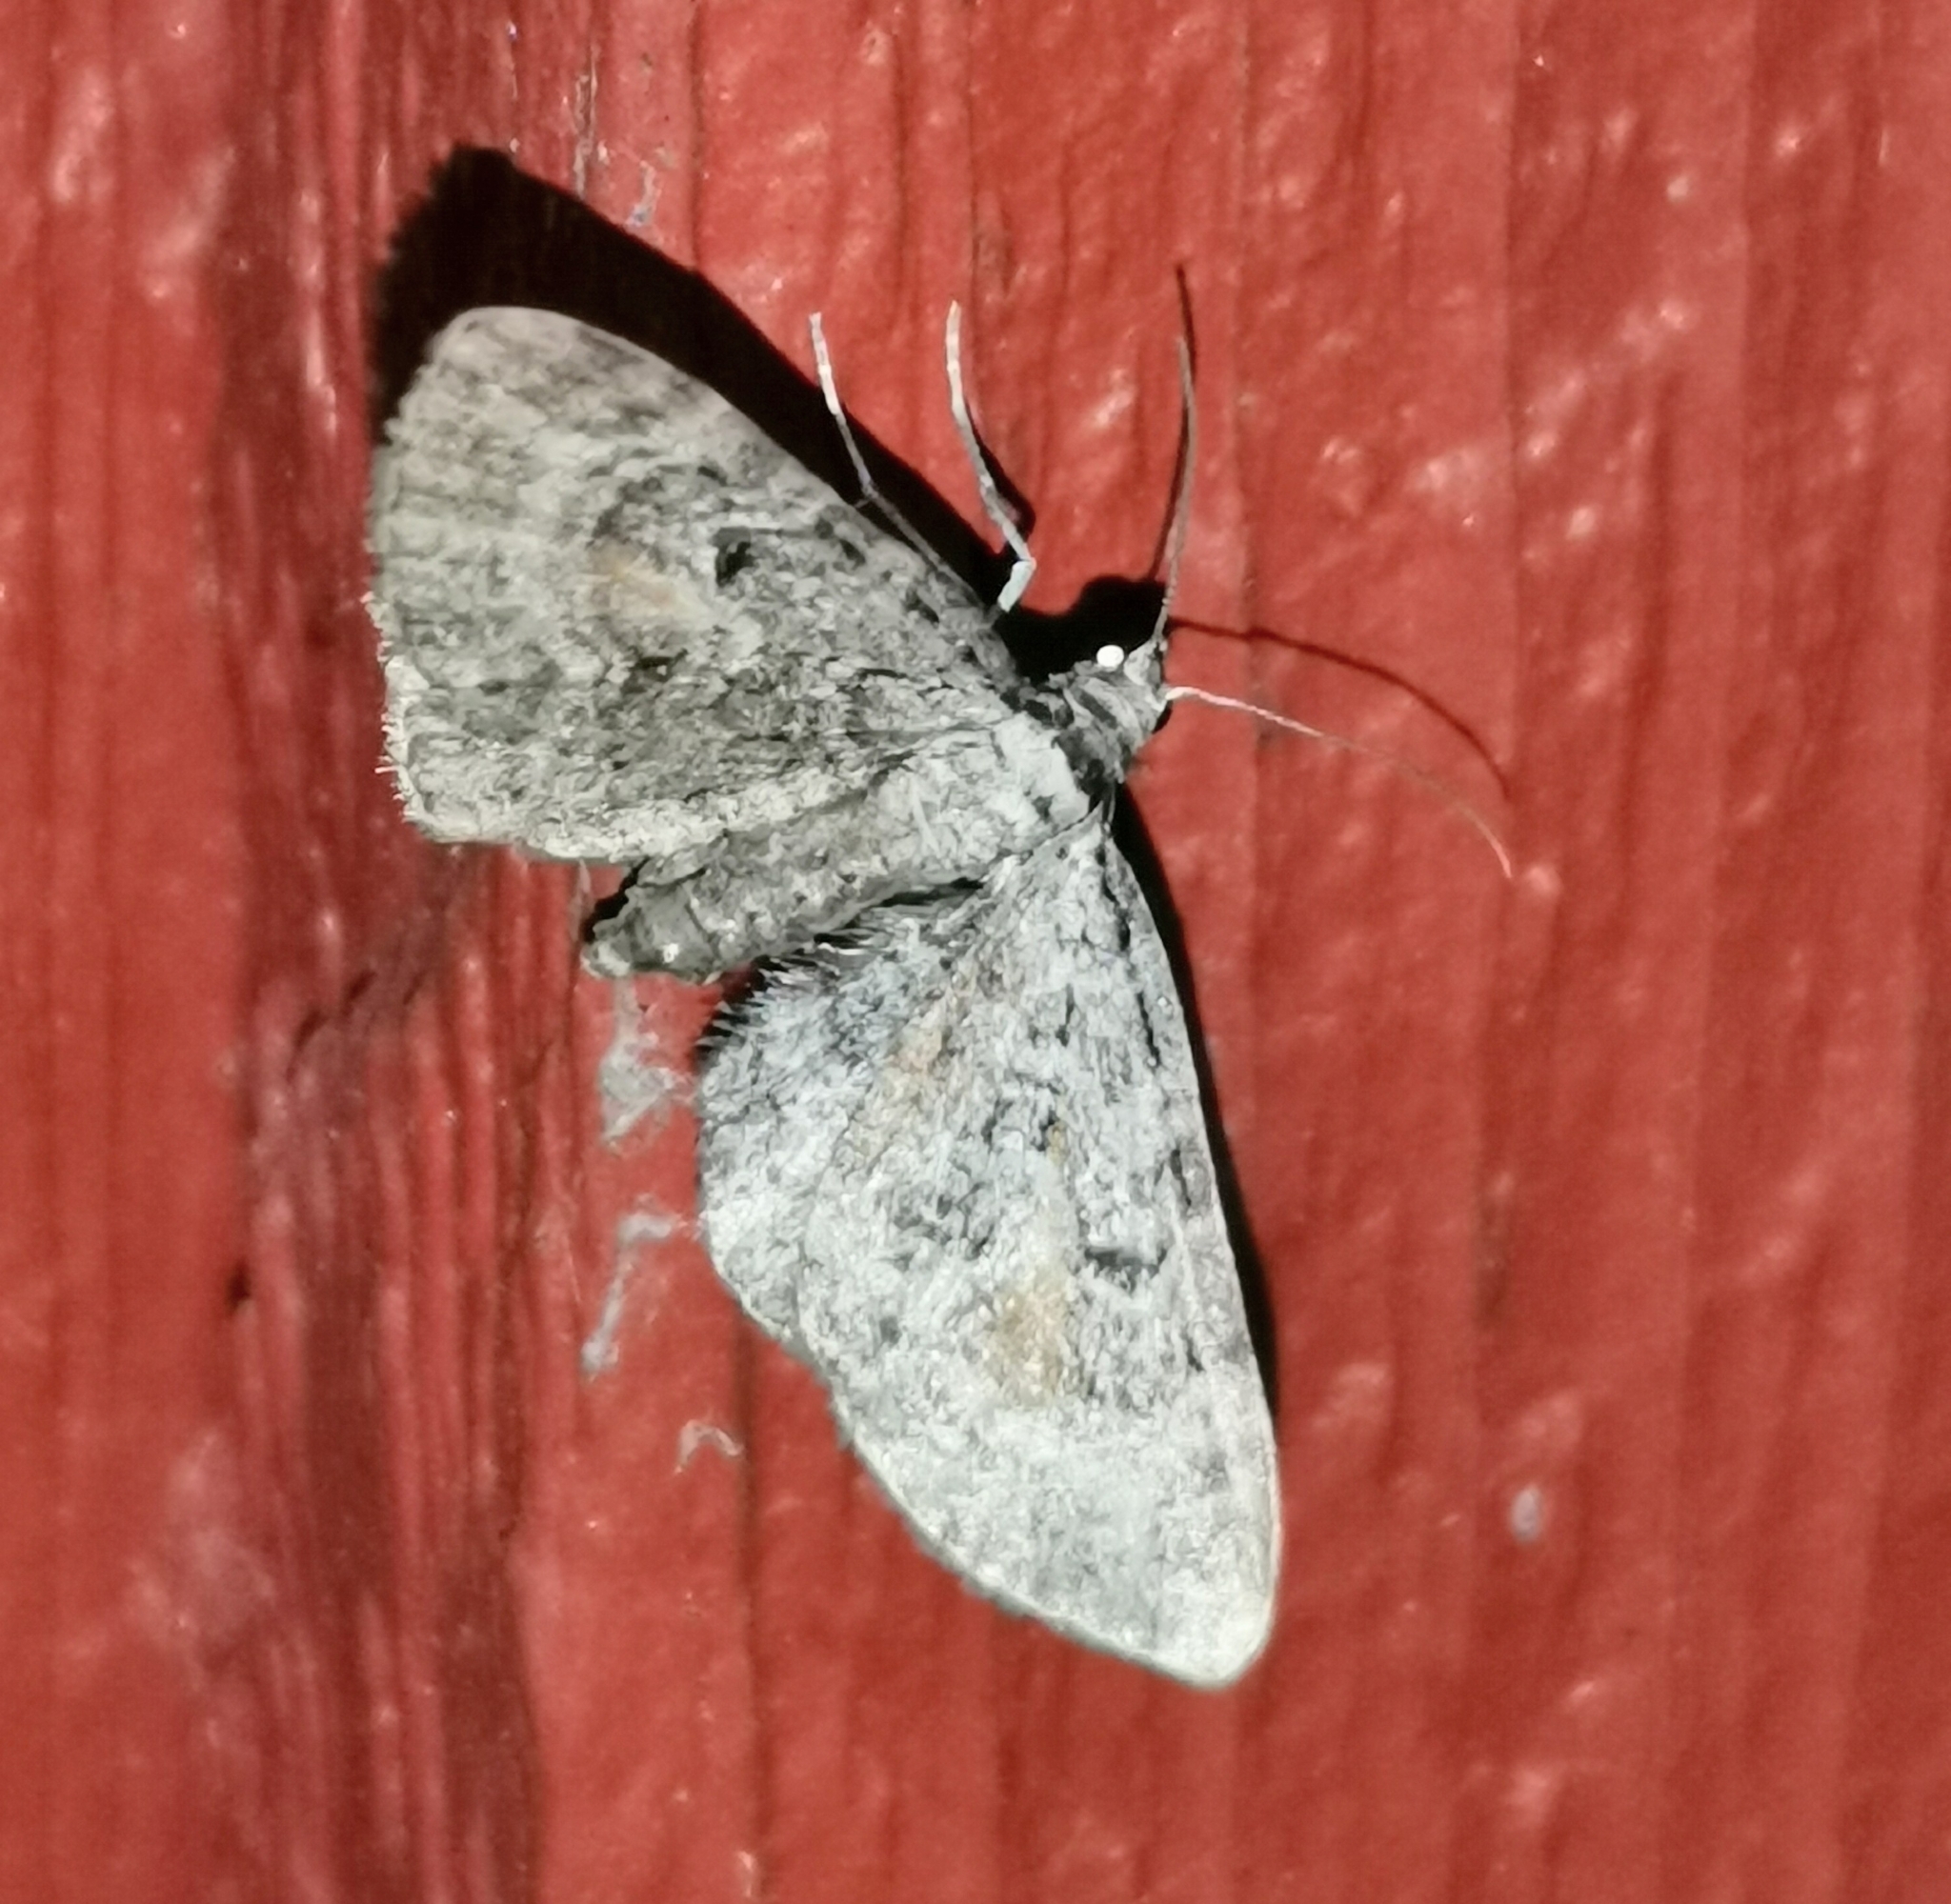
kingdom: Animalia
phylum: Arthropoda
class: Insecta
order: Lepidoptera
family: Geometridae
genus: Eupithecia
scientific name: Eupithecia icterata
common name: Tawny speckled pug
